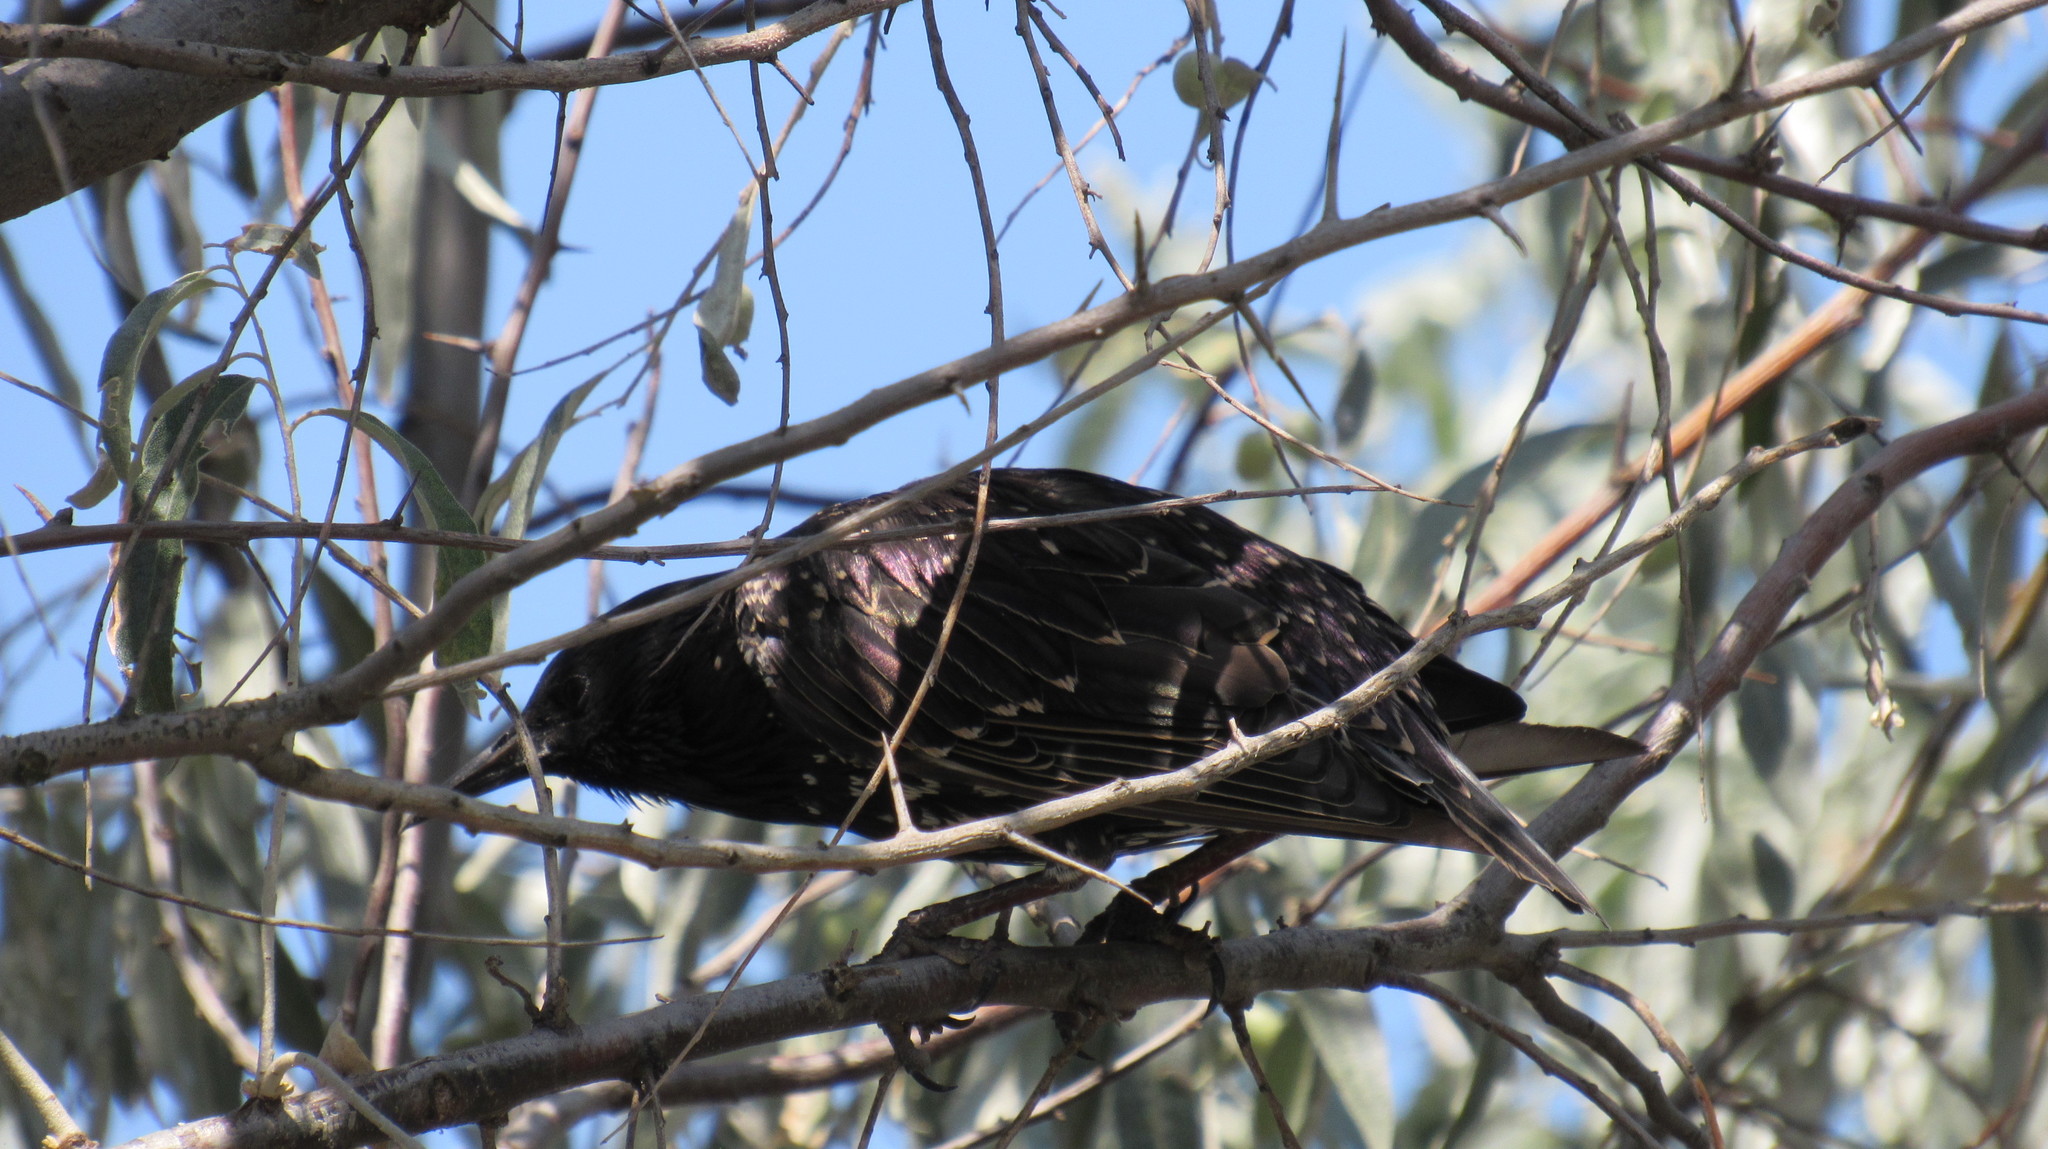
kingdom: Animalia
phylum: Chordata
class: Aves
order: Passeriformes
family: Sturnidae
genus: Sturnus
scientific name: Sturnus vulgaris
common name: Common starling
